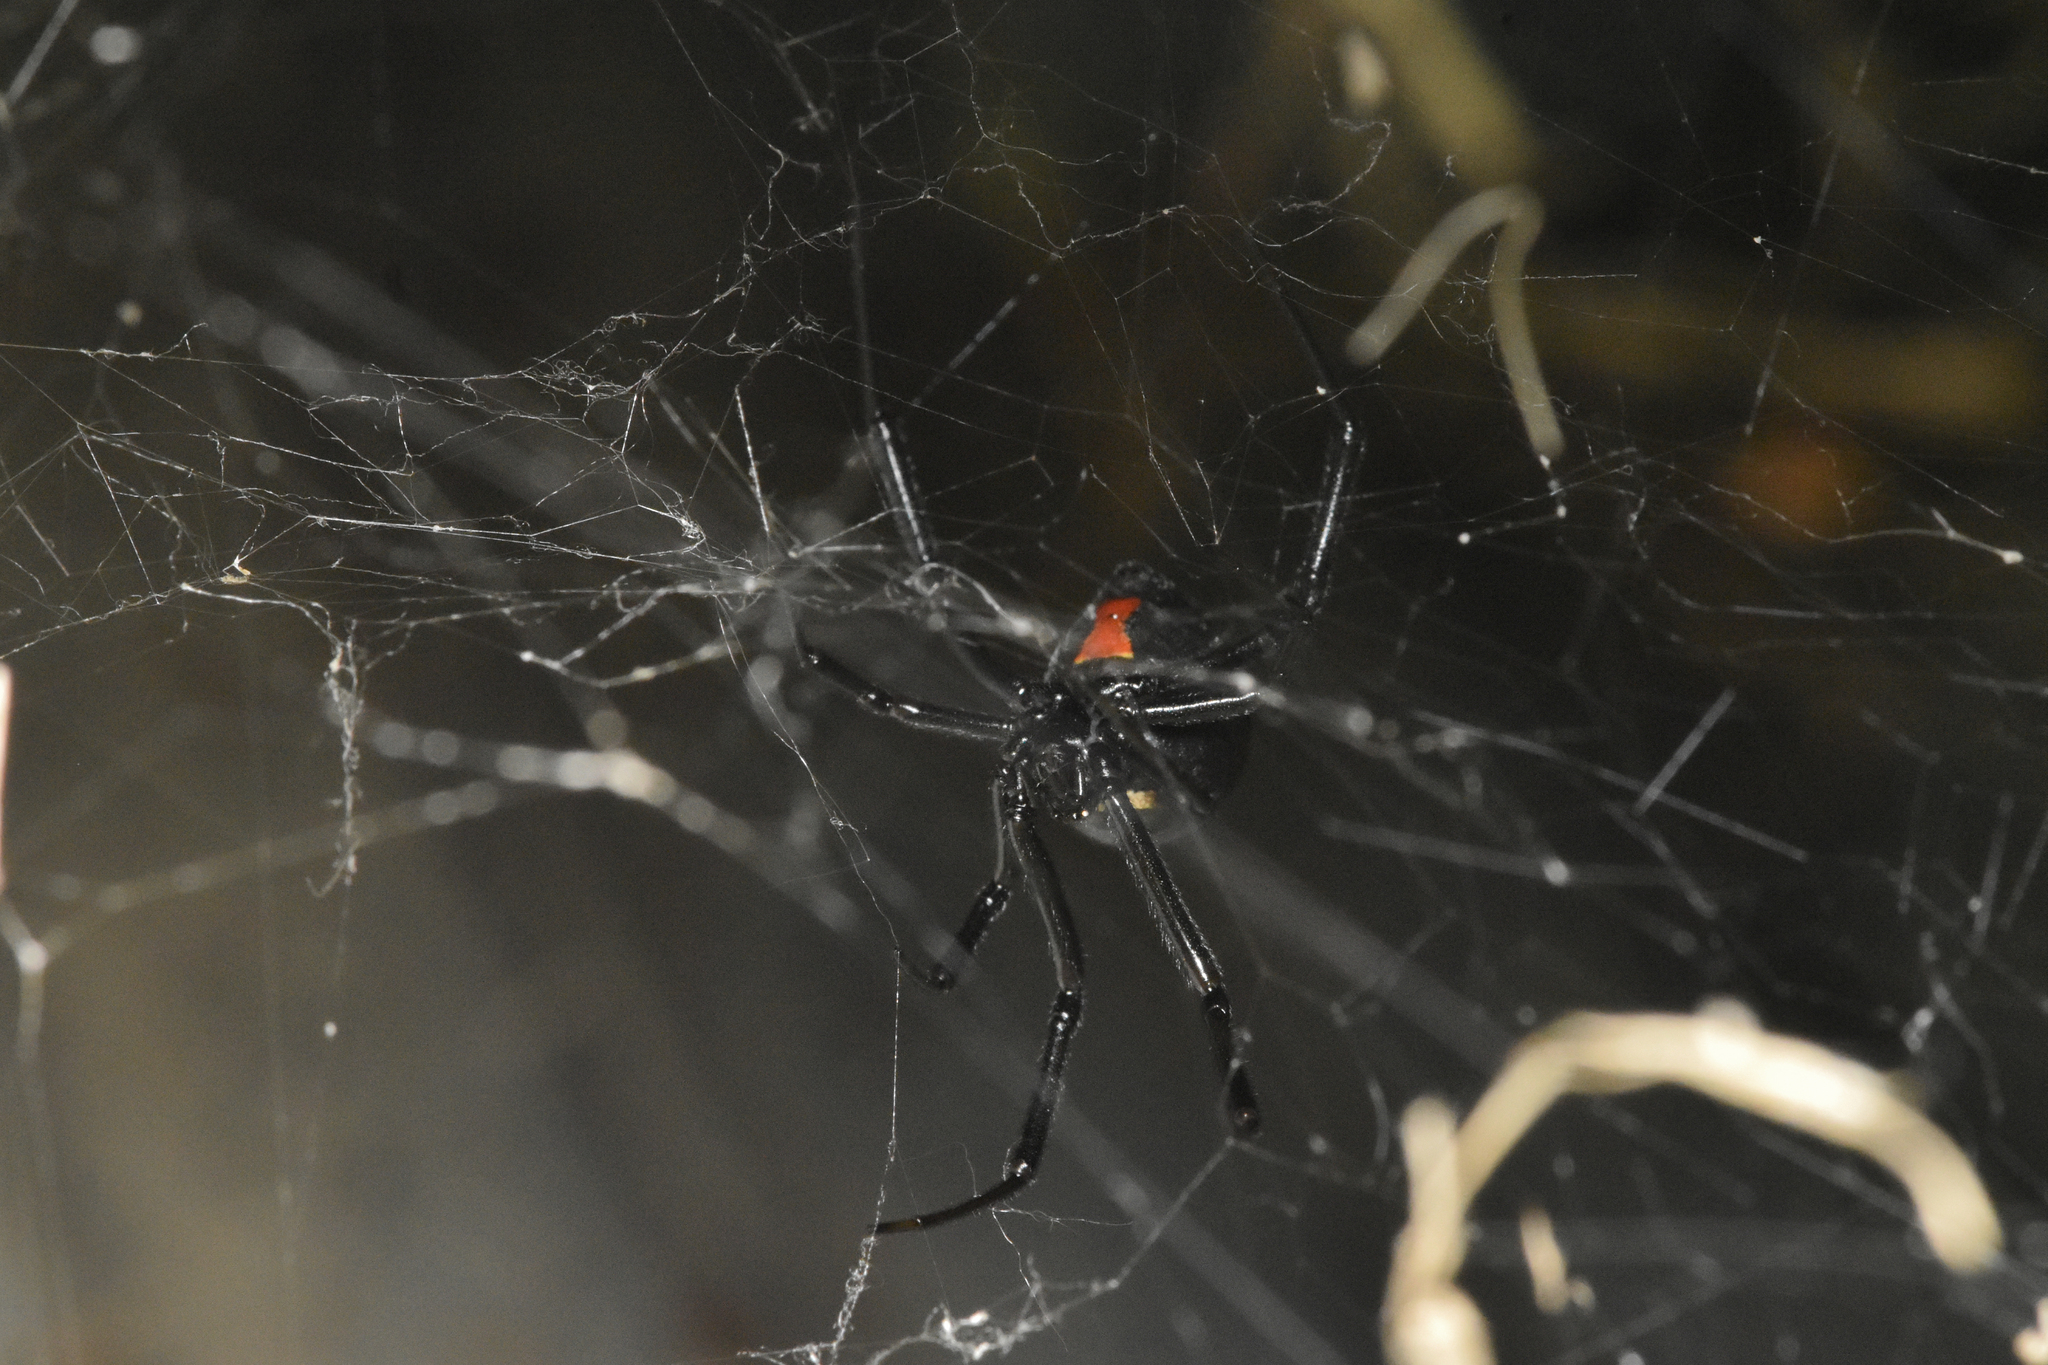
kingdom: Animalia
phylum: Arthropoda
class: Arachnida
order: Araneae
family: Theridiidae
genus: Latrodectus
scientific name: Latrodectus hesperus
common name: Western black widow
